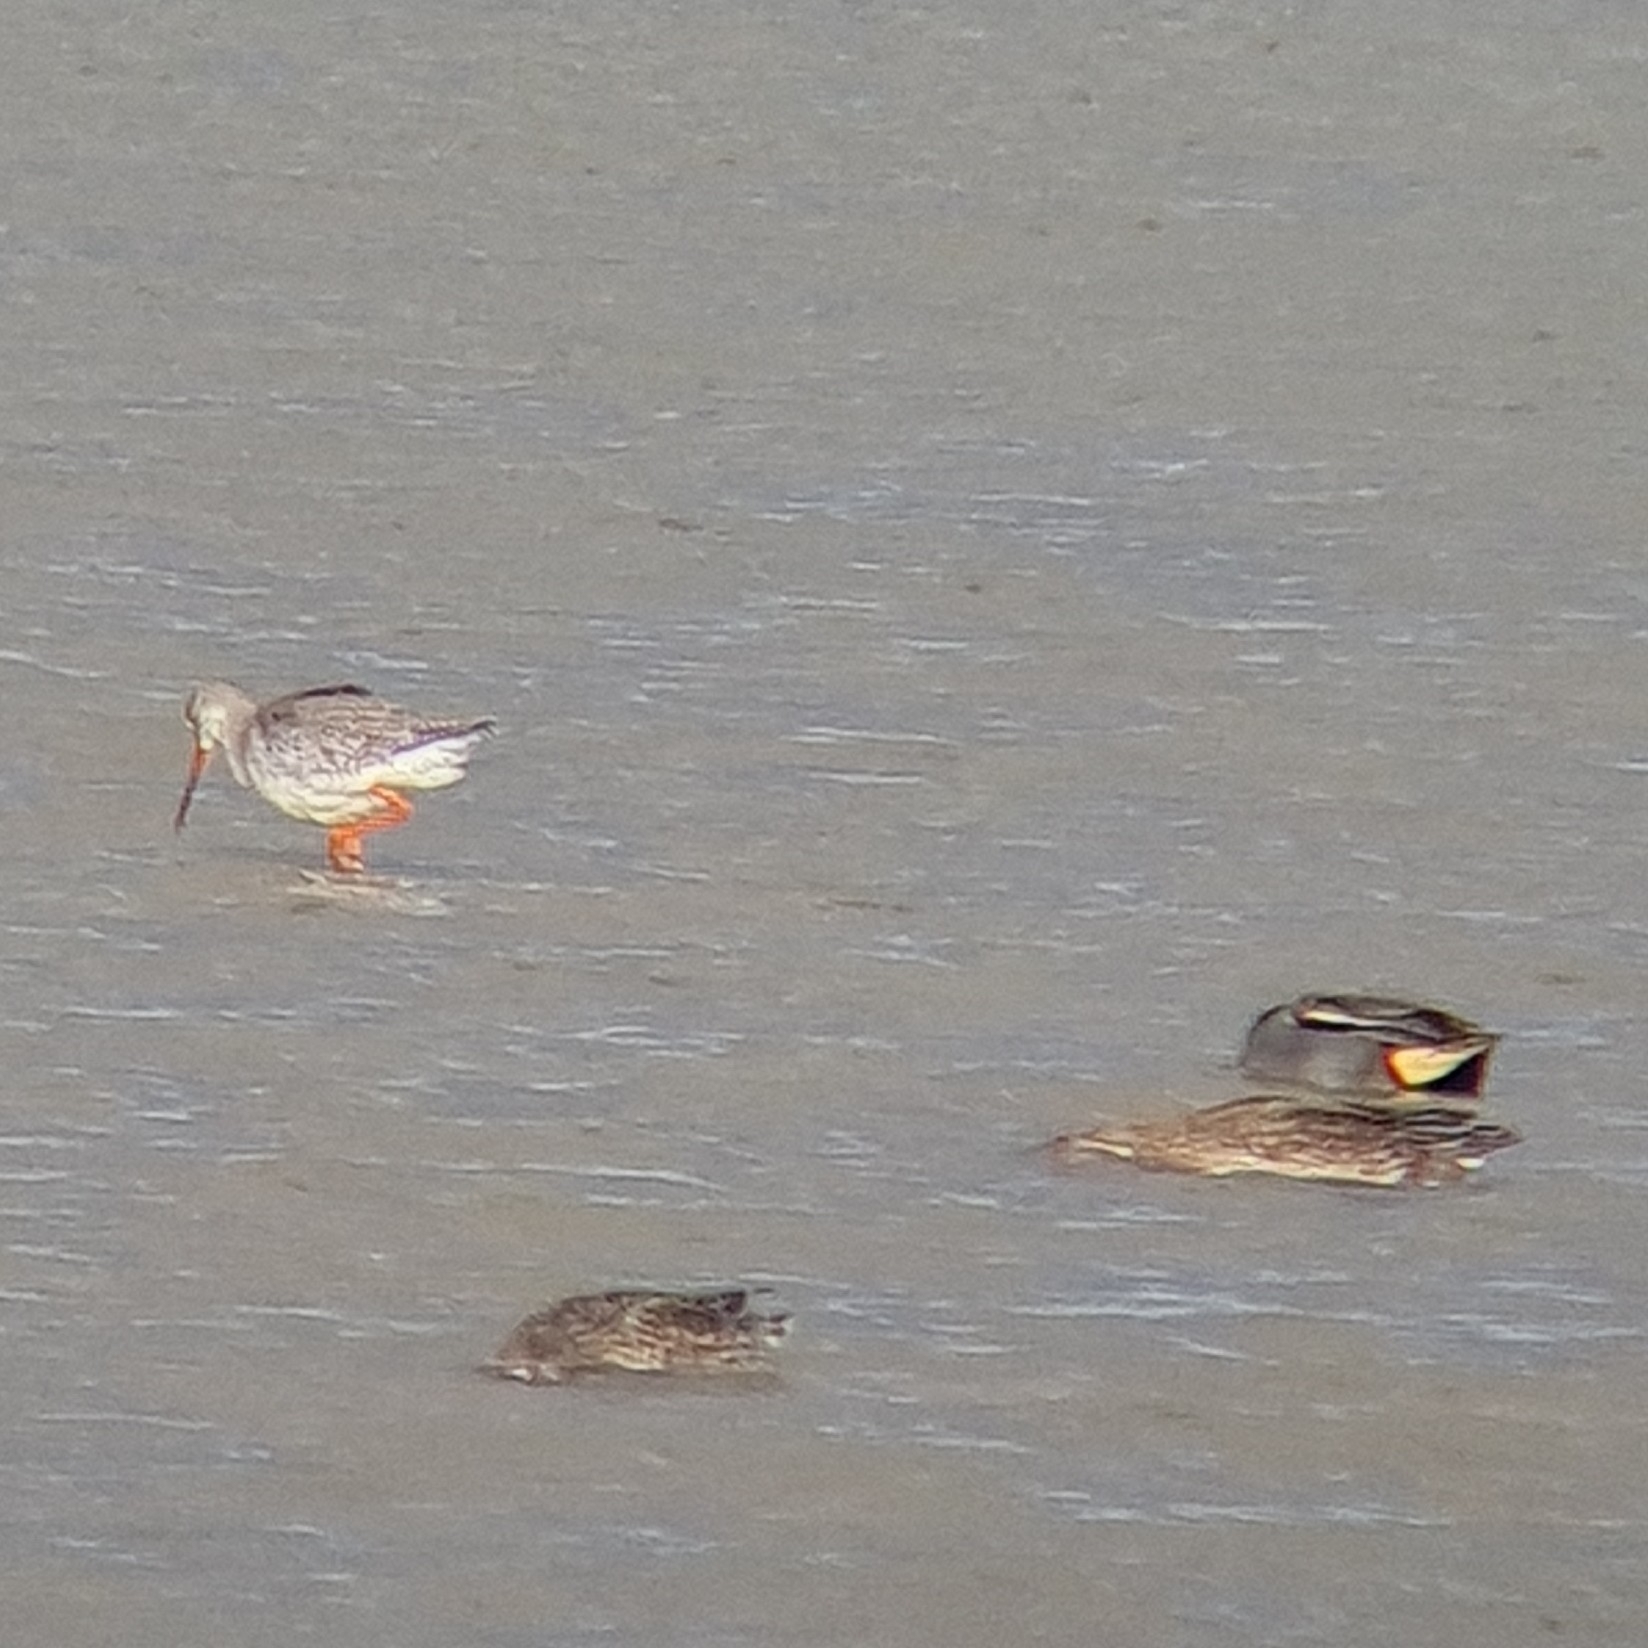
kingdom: Animalia
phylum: Chordata
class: Aves
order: Charadriiformes
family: Scolopacidae
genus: Tringa
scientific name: Tringa erythropus
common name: Spotted redshank
